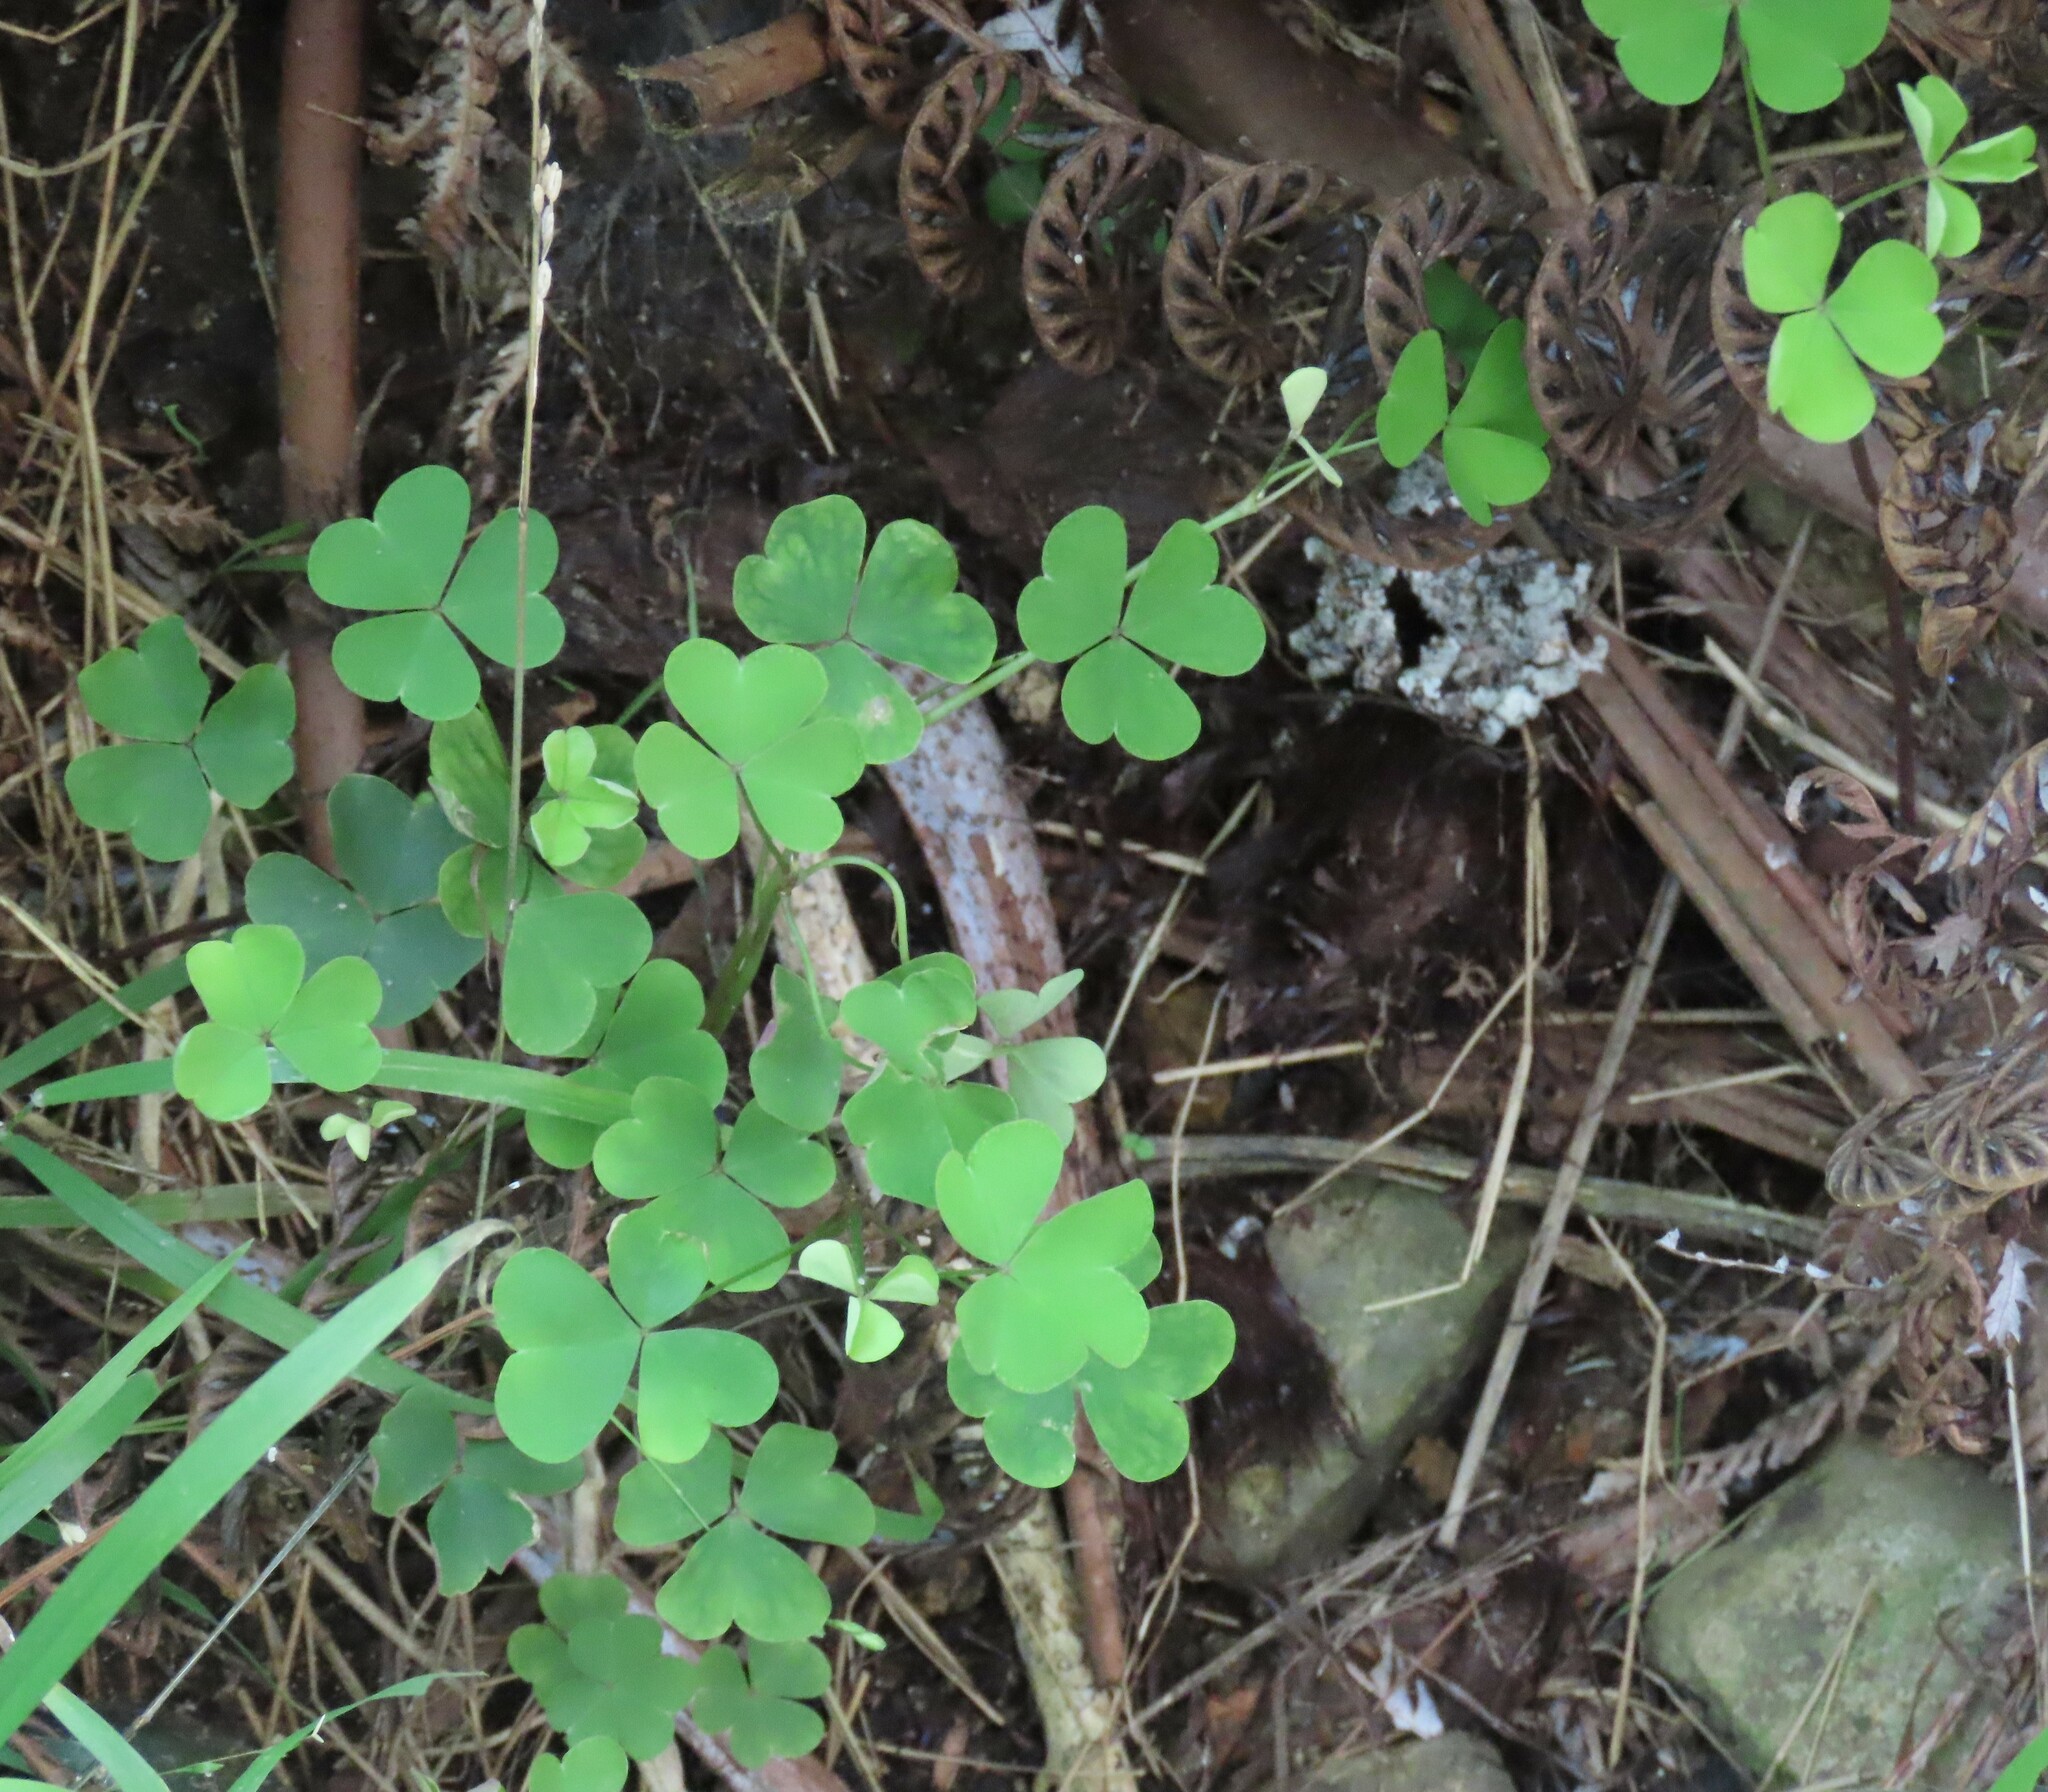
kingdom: Plantae
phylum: Tracheophyta
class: Magnoliopsida
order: Oxalidales
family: Oxalidaceae
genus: Oxalis
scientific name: Oxalis incarnata
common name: Pale pink-sorrel
